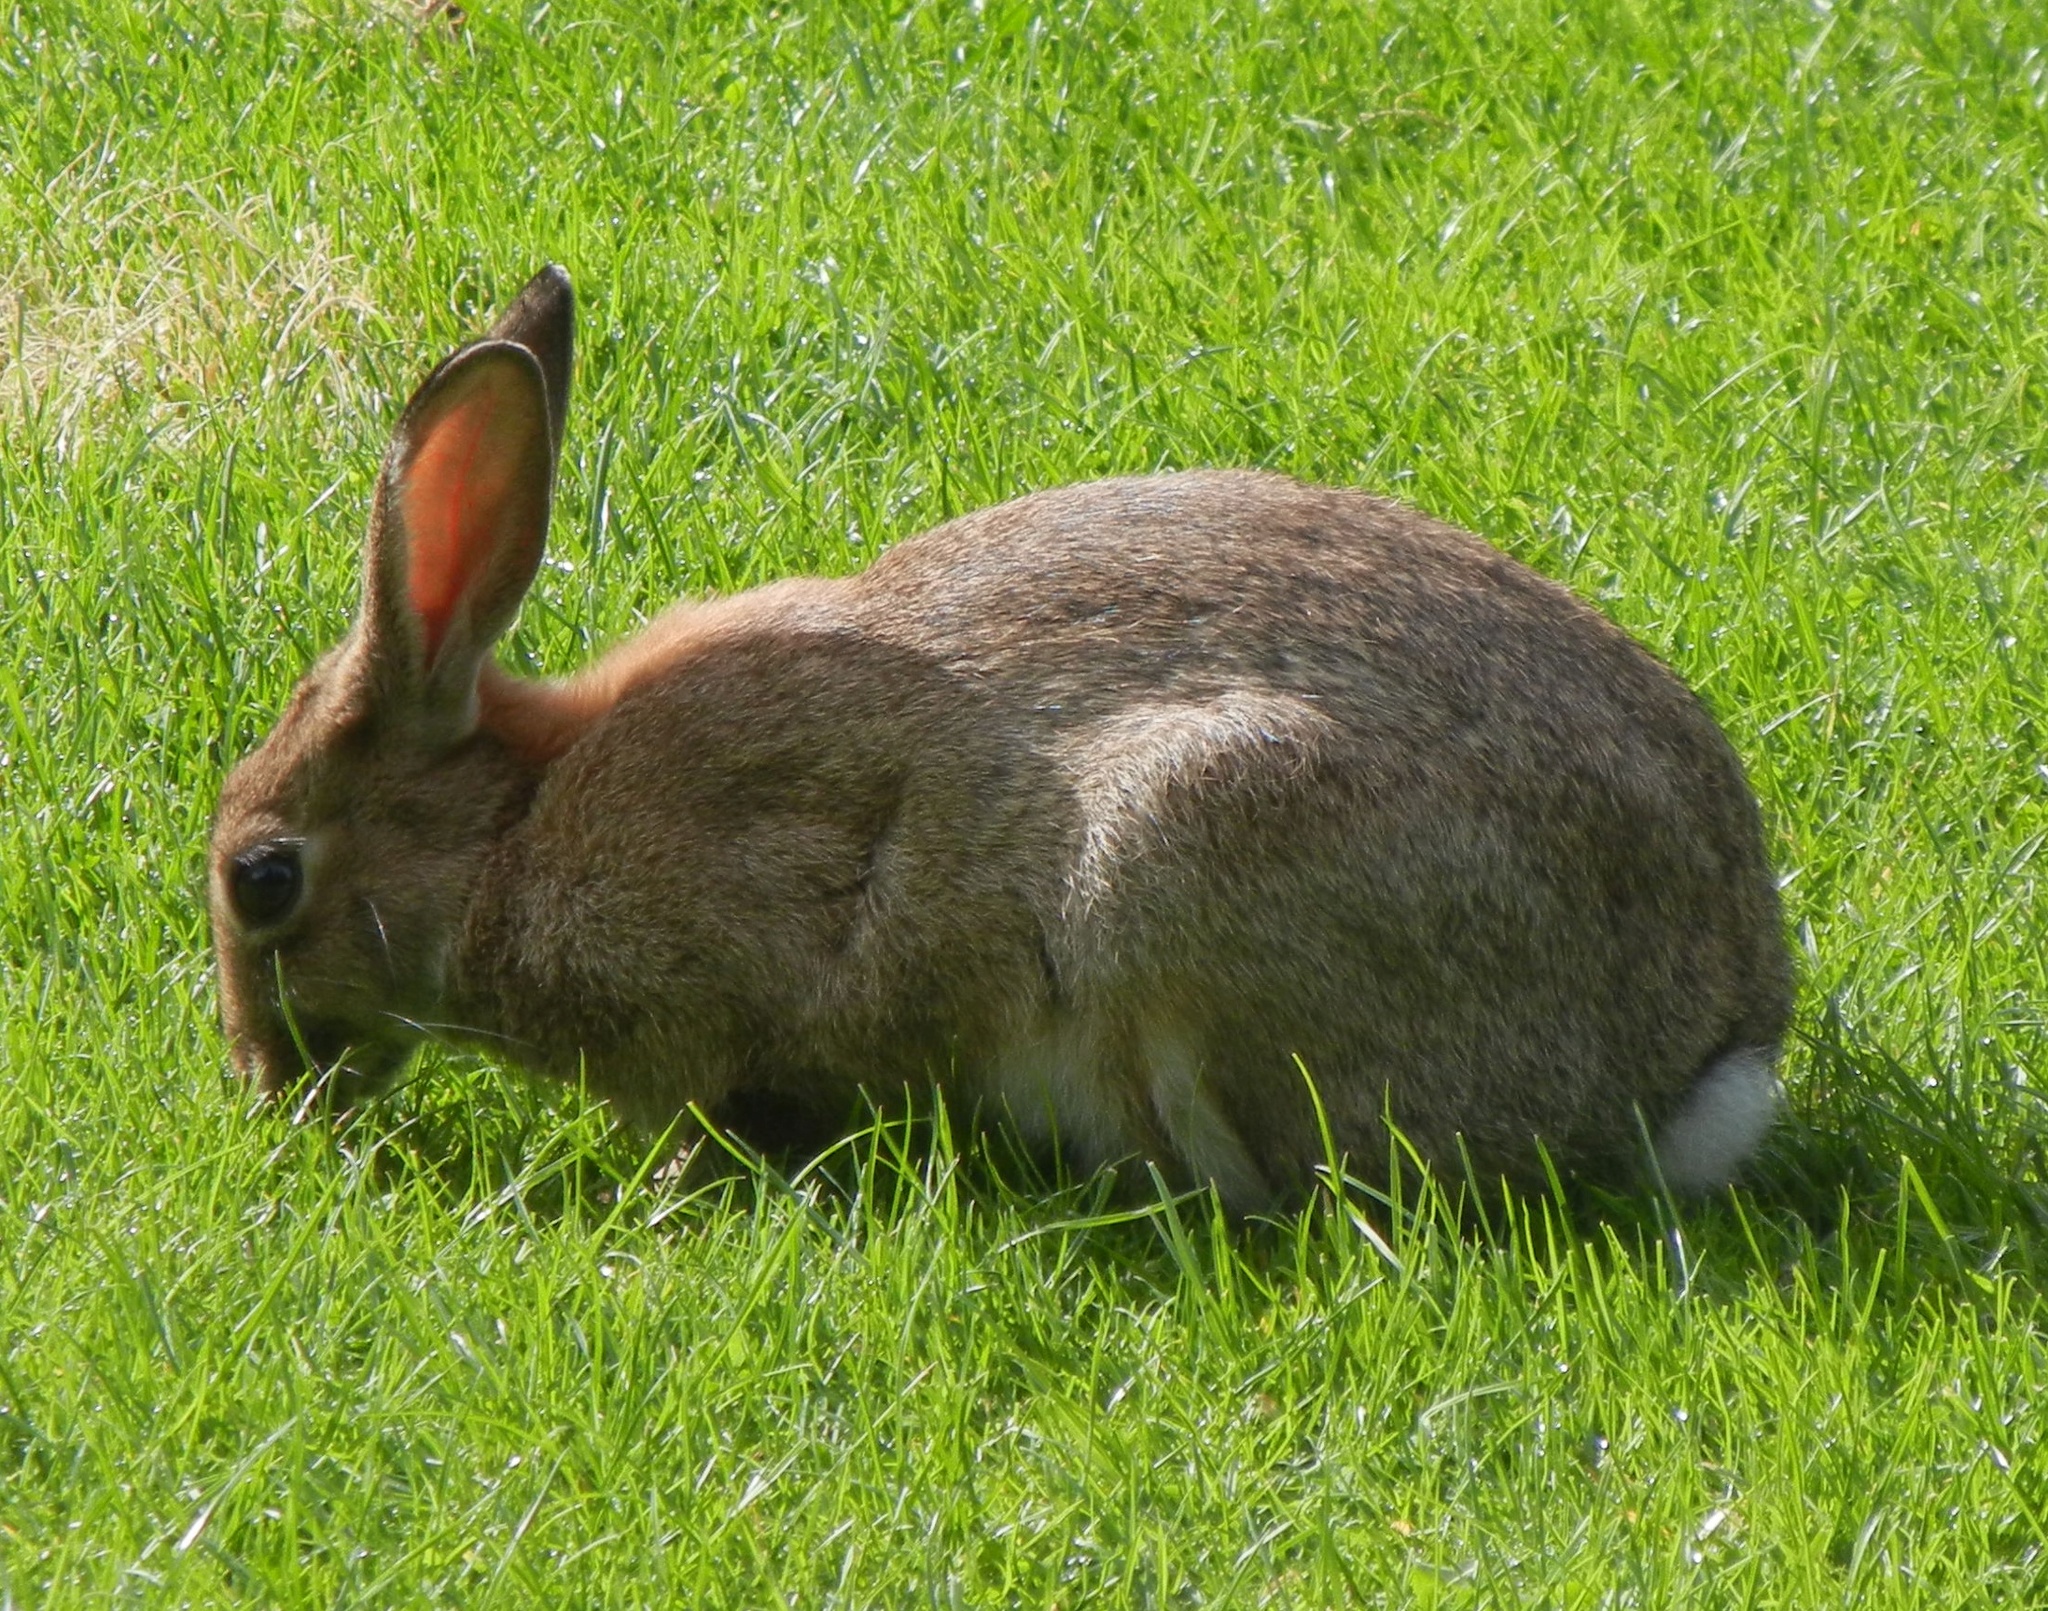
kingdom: Animalia
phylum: Chordata
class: Mammalia
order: Lagomorpha
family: Leporidae
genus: Oryctolagus
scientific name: Oryctolagus cuniculus
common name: European rabbit
